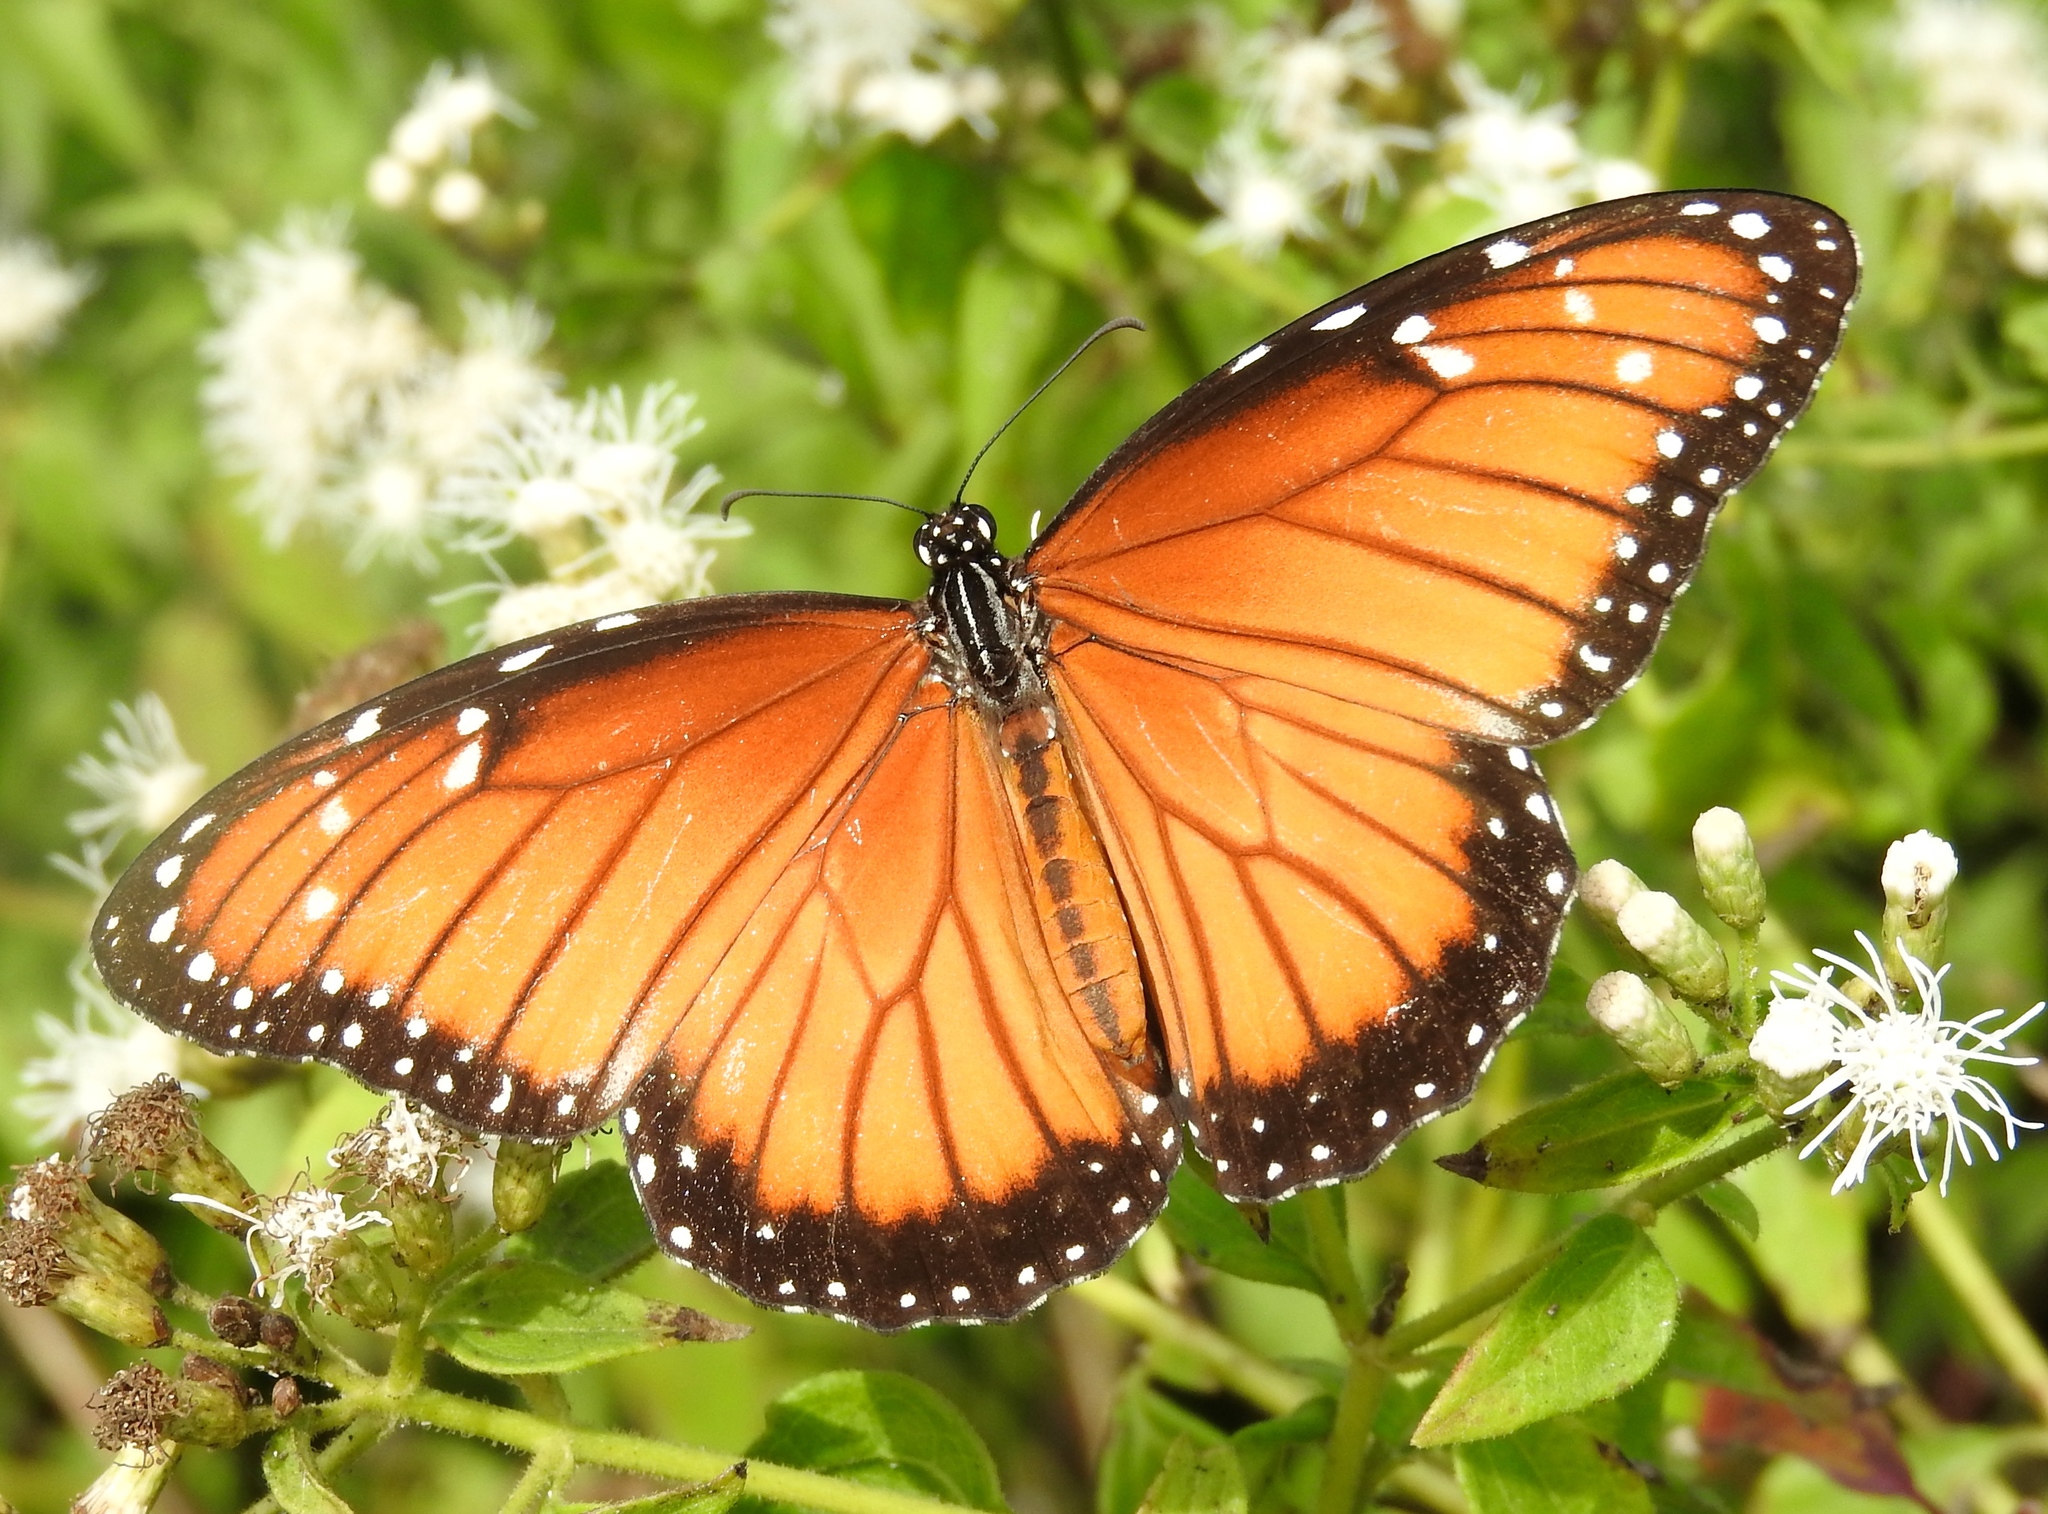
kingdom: Animalia
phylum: Arthropoda
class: Insecta
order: Lepidoptera
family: Nymphalidae
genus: Danaus
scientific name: Danaus eresimus
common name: Soldier
